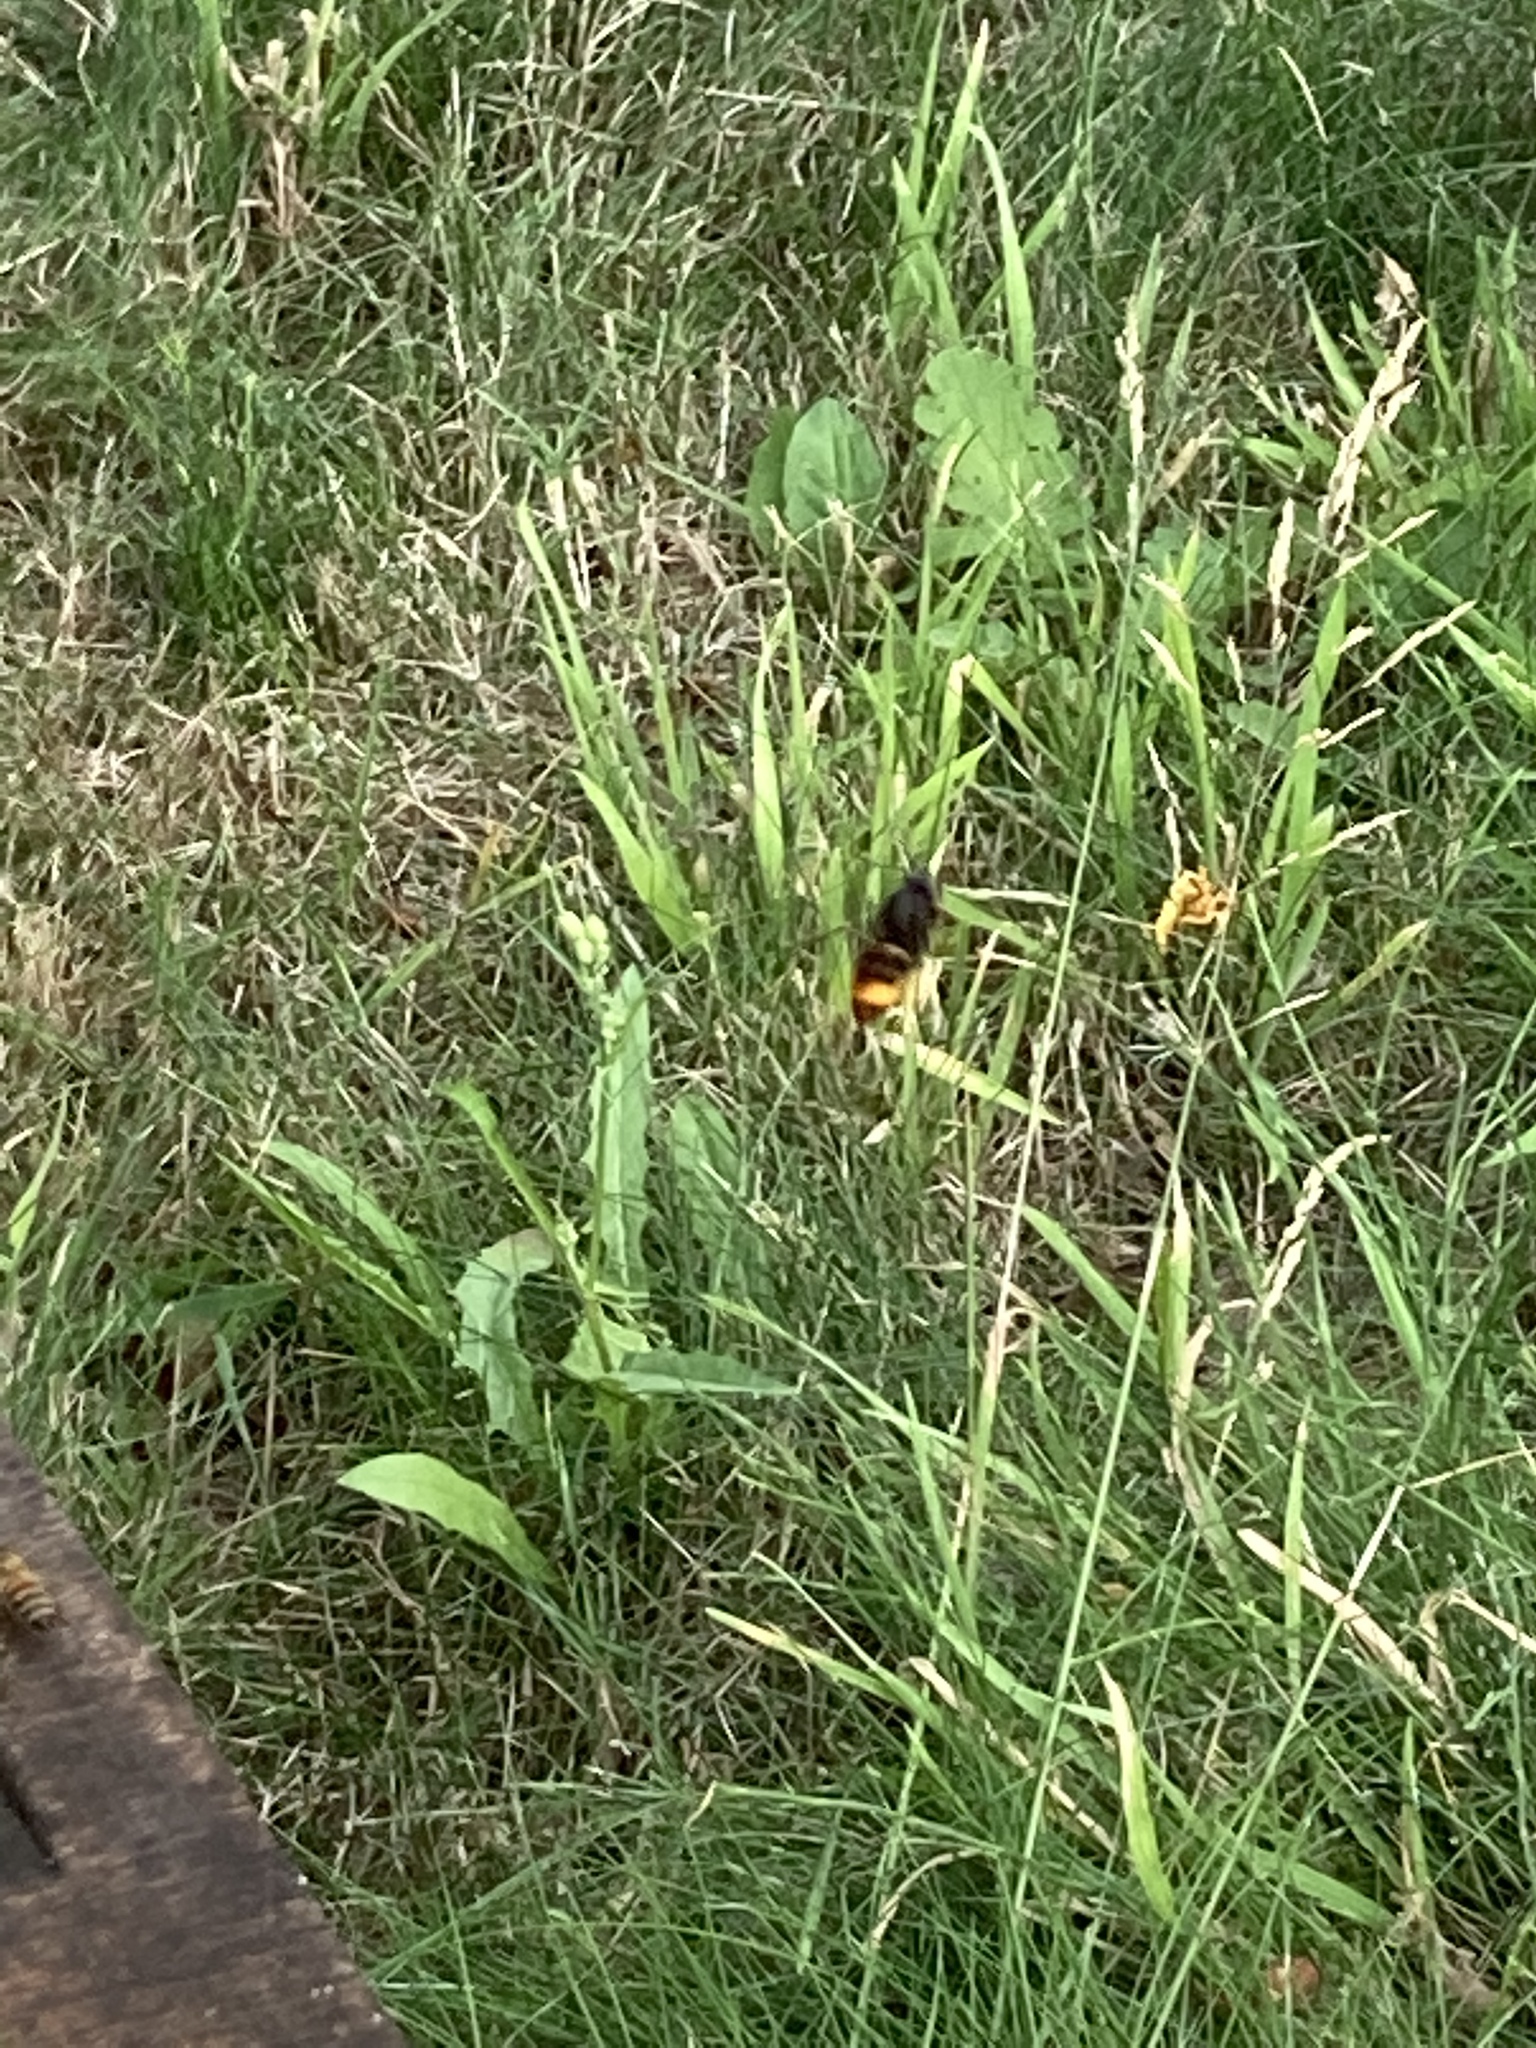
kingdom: Animalia
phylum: Arthropoda
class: Insecta
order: Hymenoptera
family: Vespidae
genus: Vespa
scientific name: Vespa velutina
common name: Asian hornet
